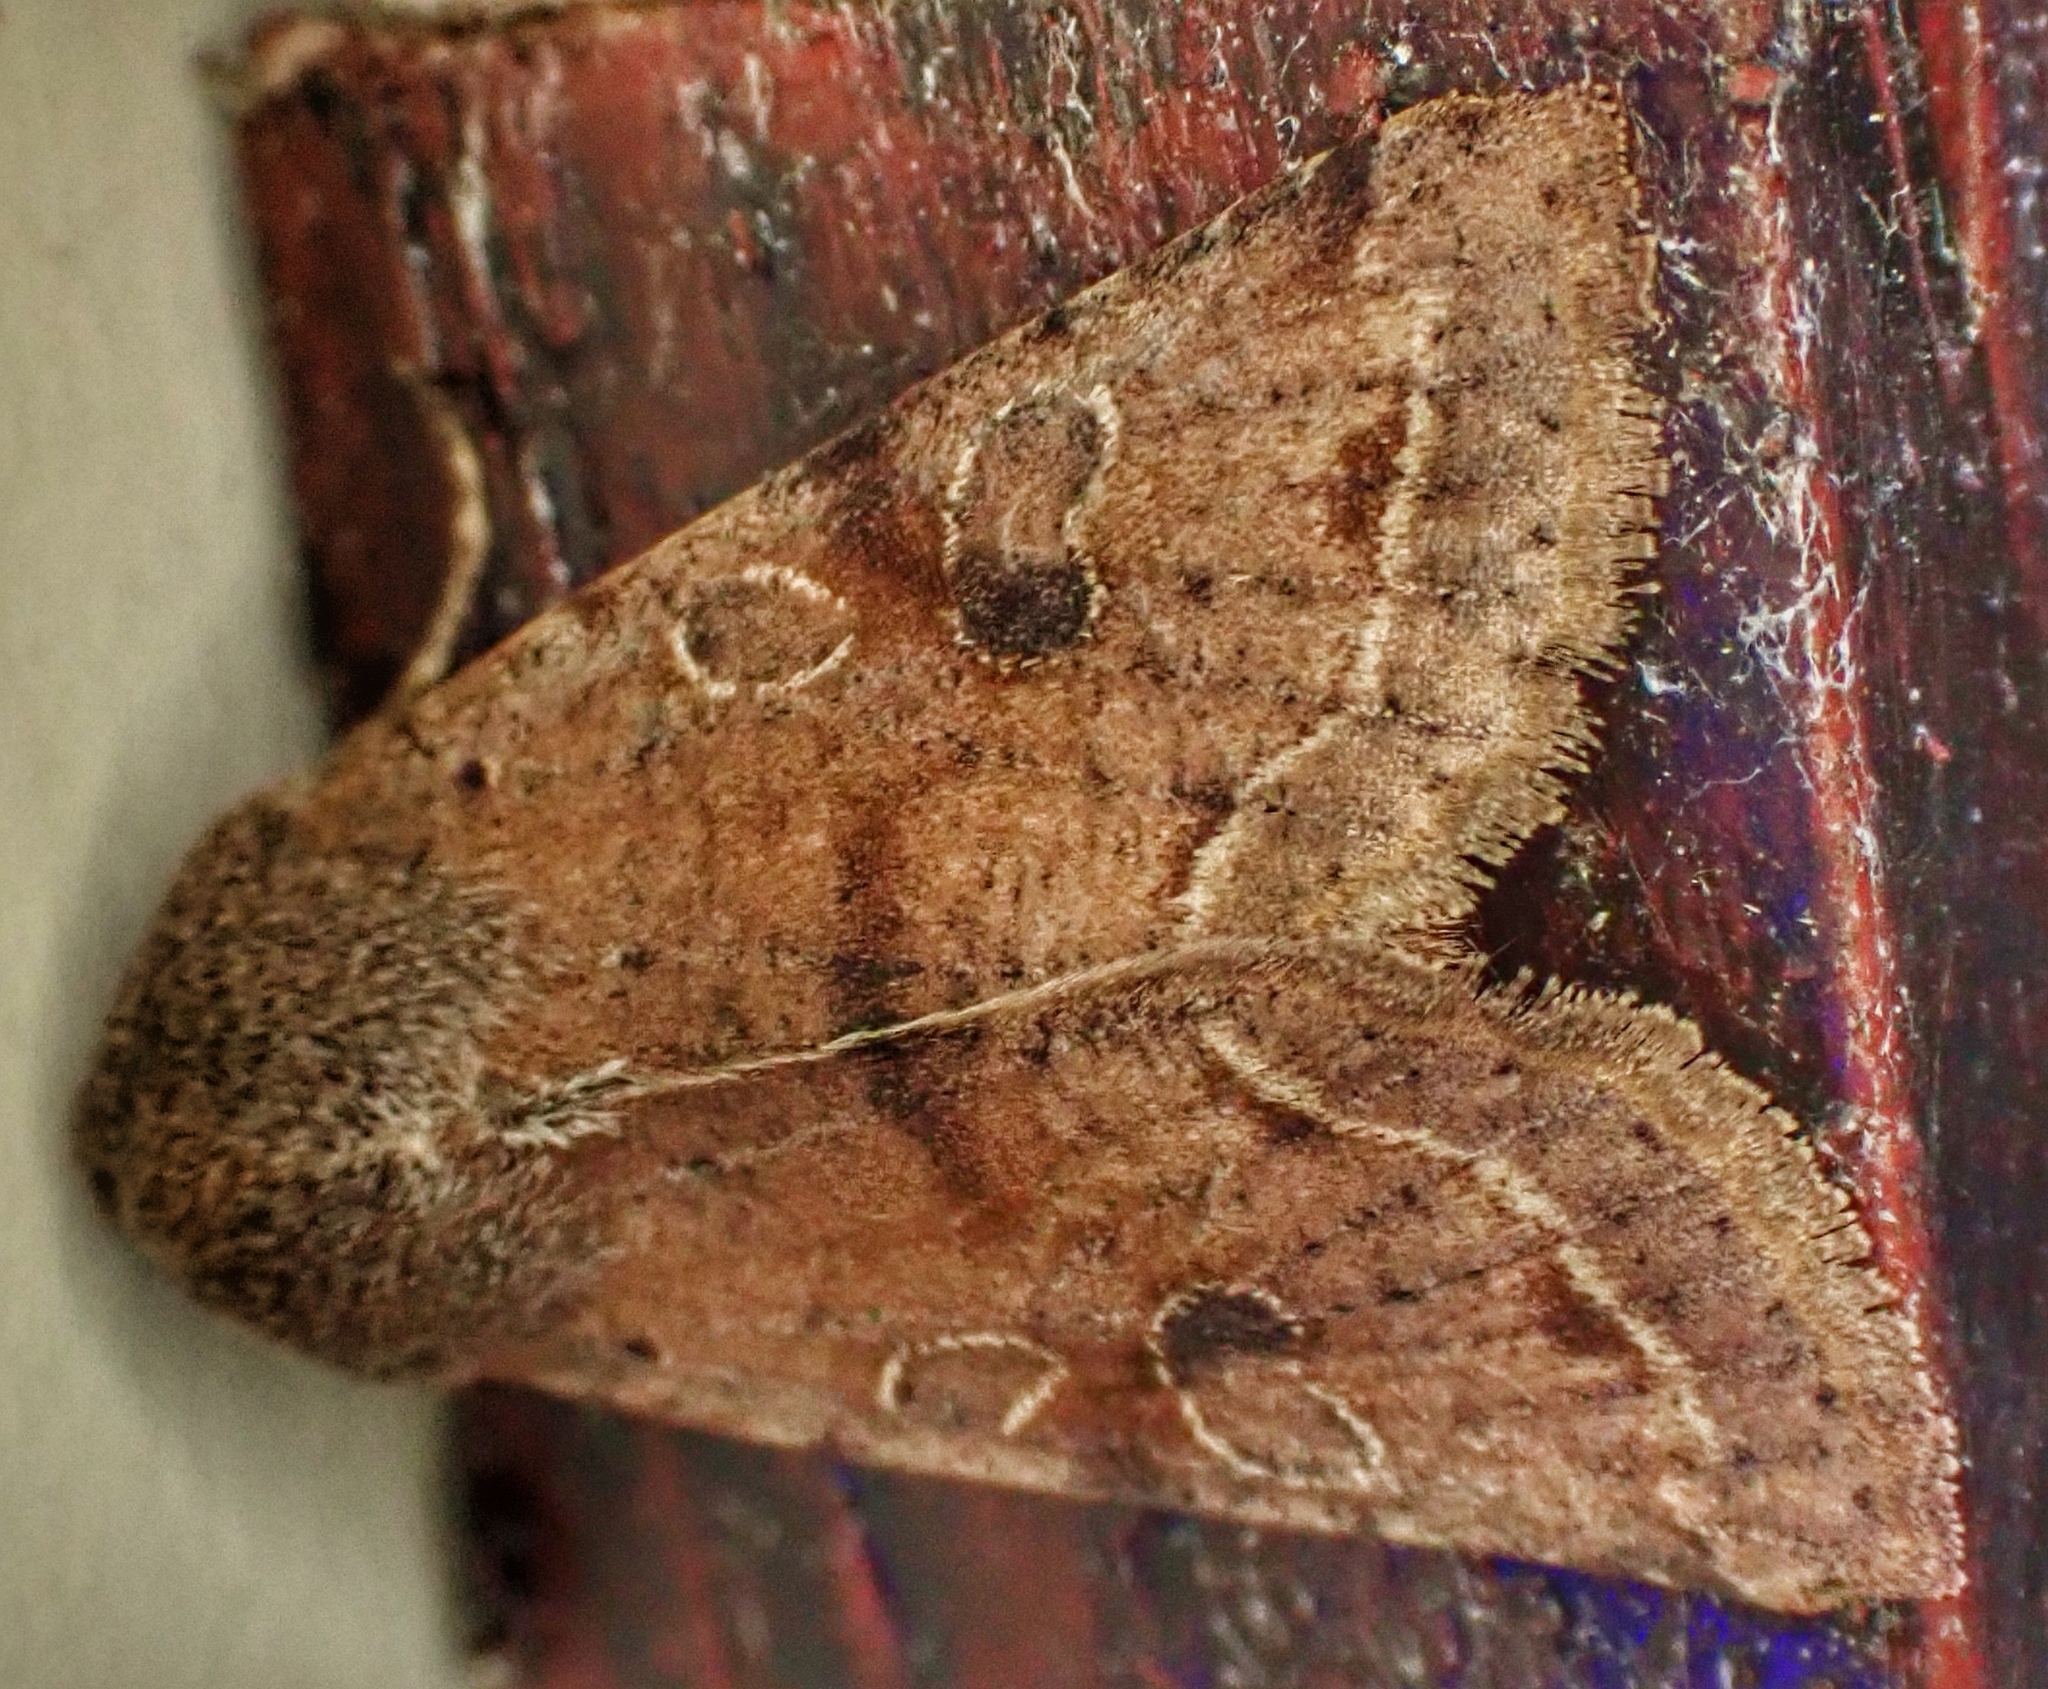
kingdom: Animalia
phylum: Arthropoda
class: Insecta
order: Lepidoptera
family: Noctuidae
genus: Orthosia
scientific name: Orthosia incerta
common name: Clouded drab
